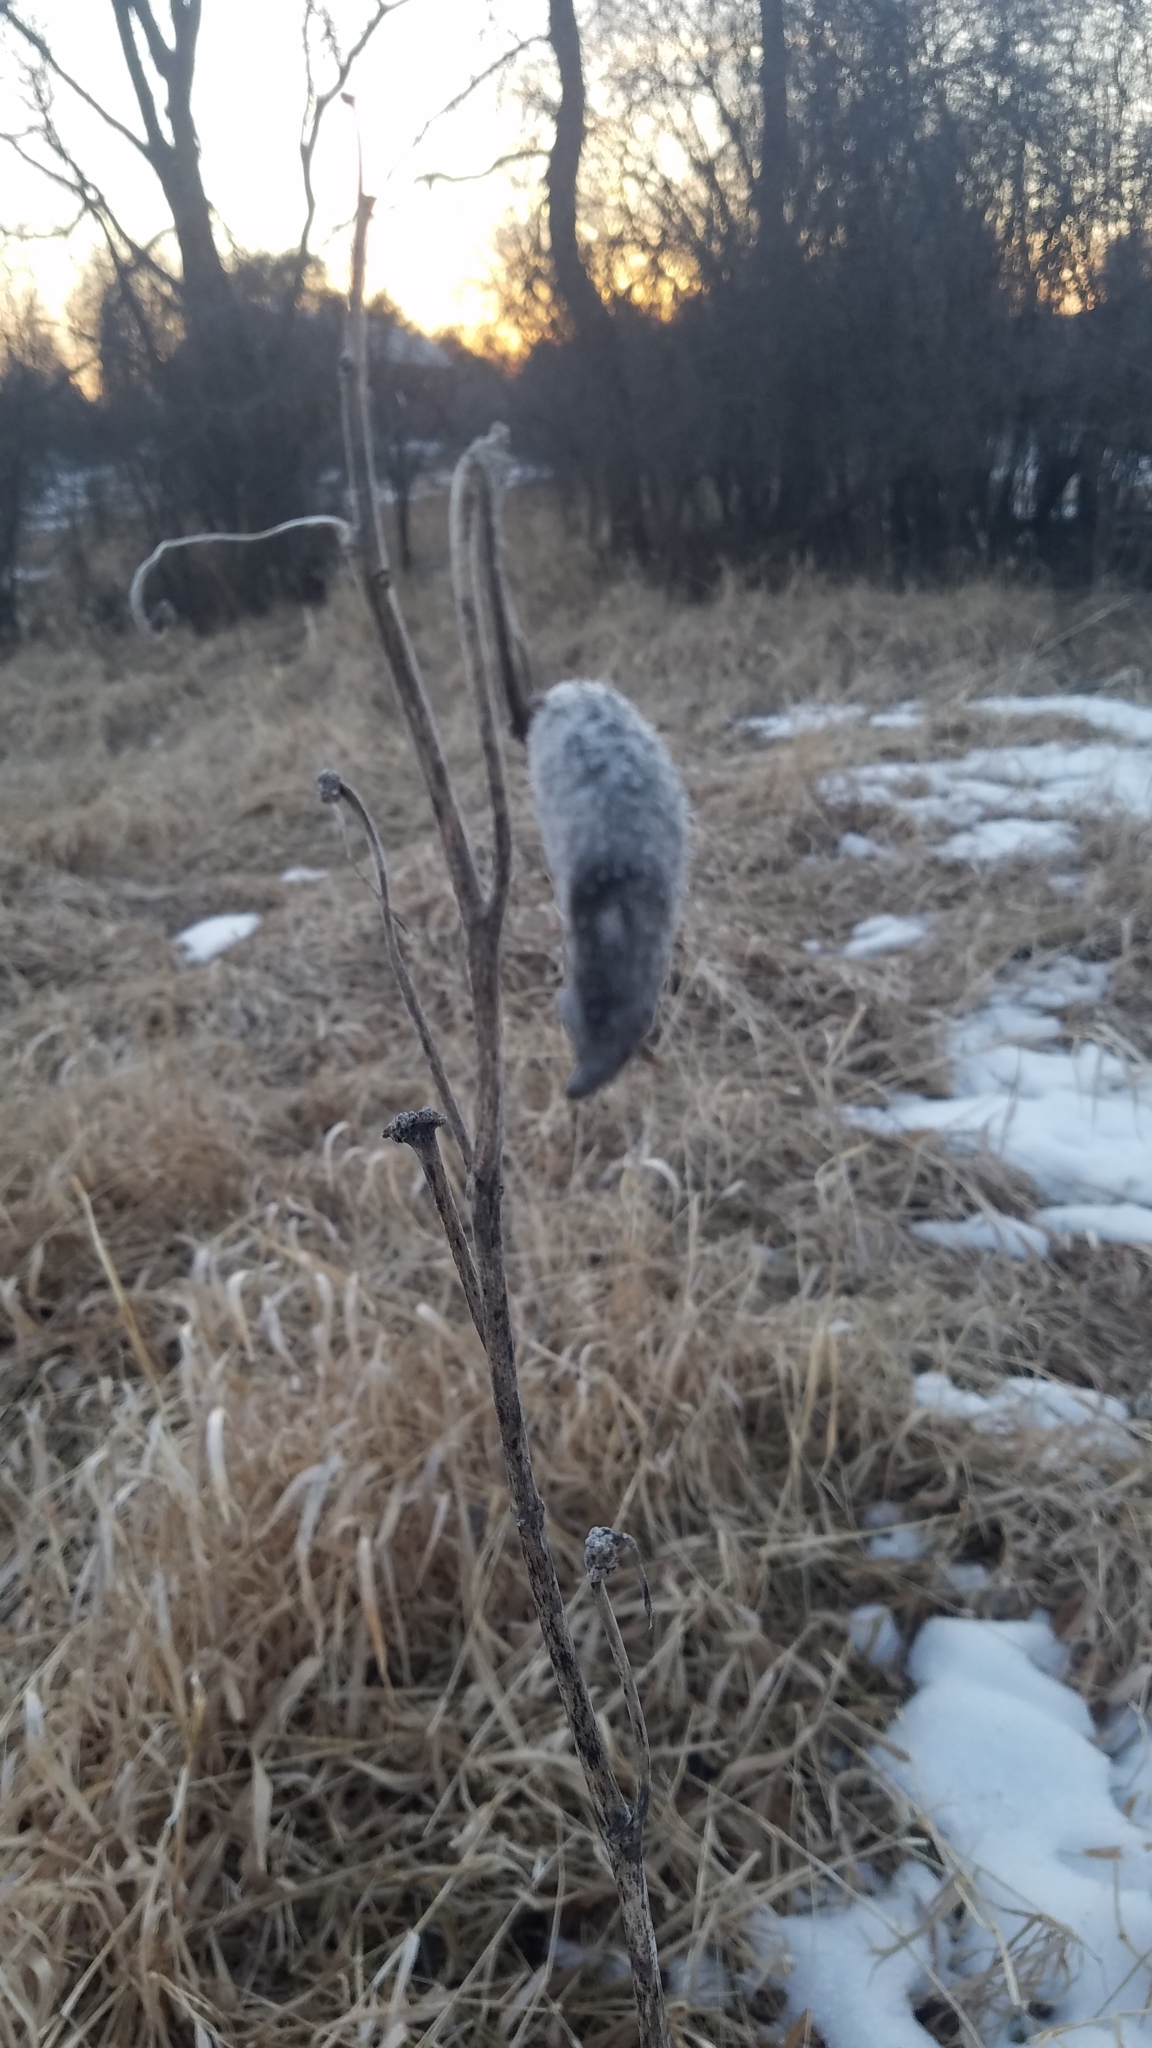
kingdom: Plantae
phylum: Tracheophyta
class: Magnoliopsida
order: Gentianales
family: Apocynaceae
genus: Asclepias
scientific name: Asclepias syriaca
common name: Common milkweed
